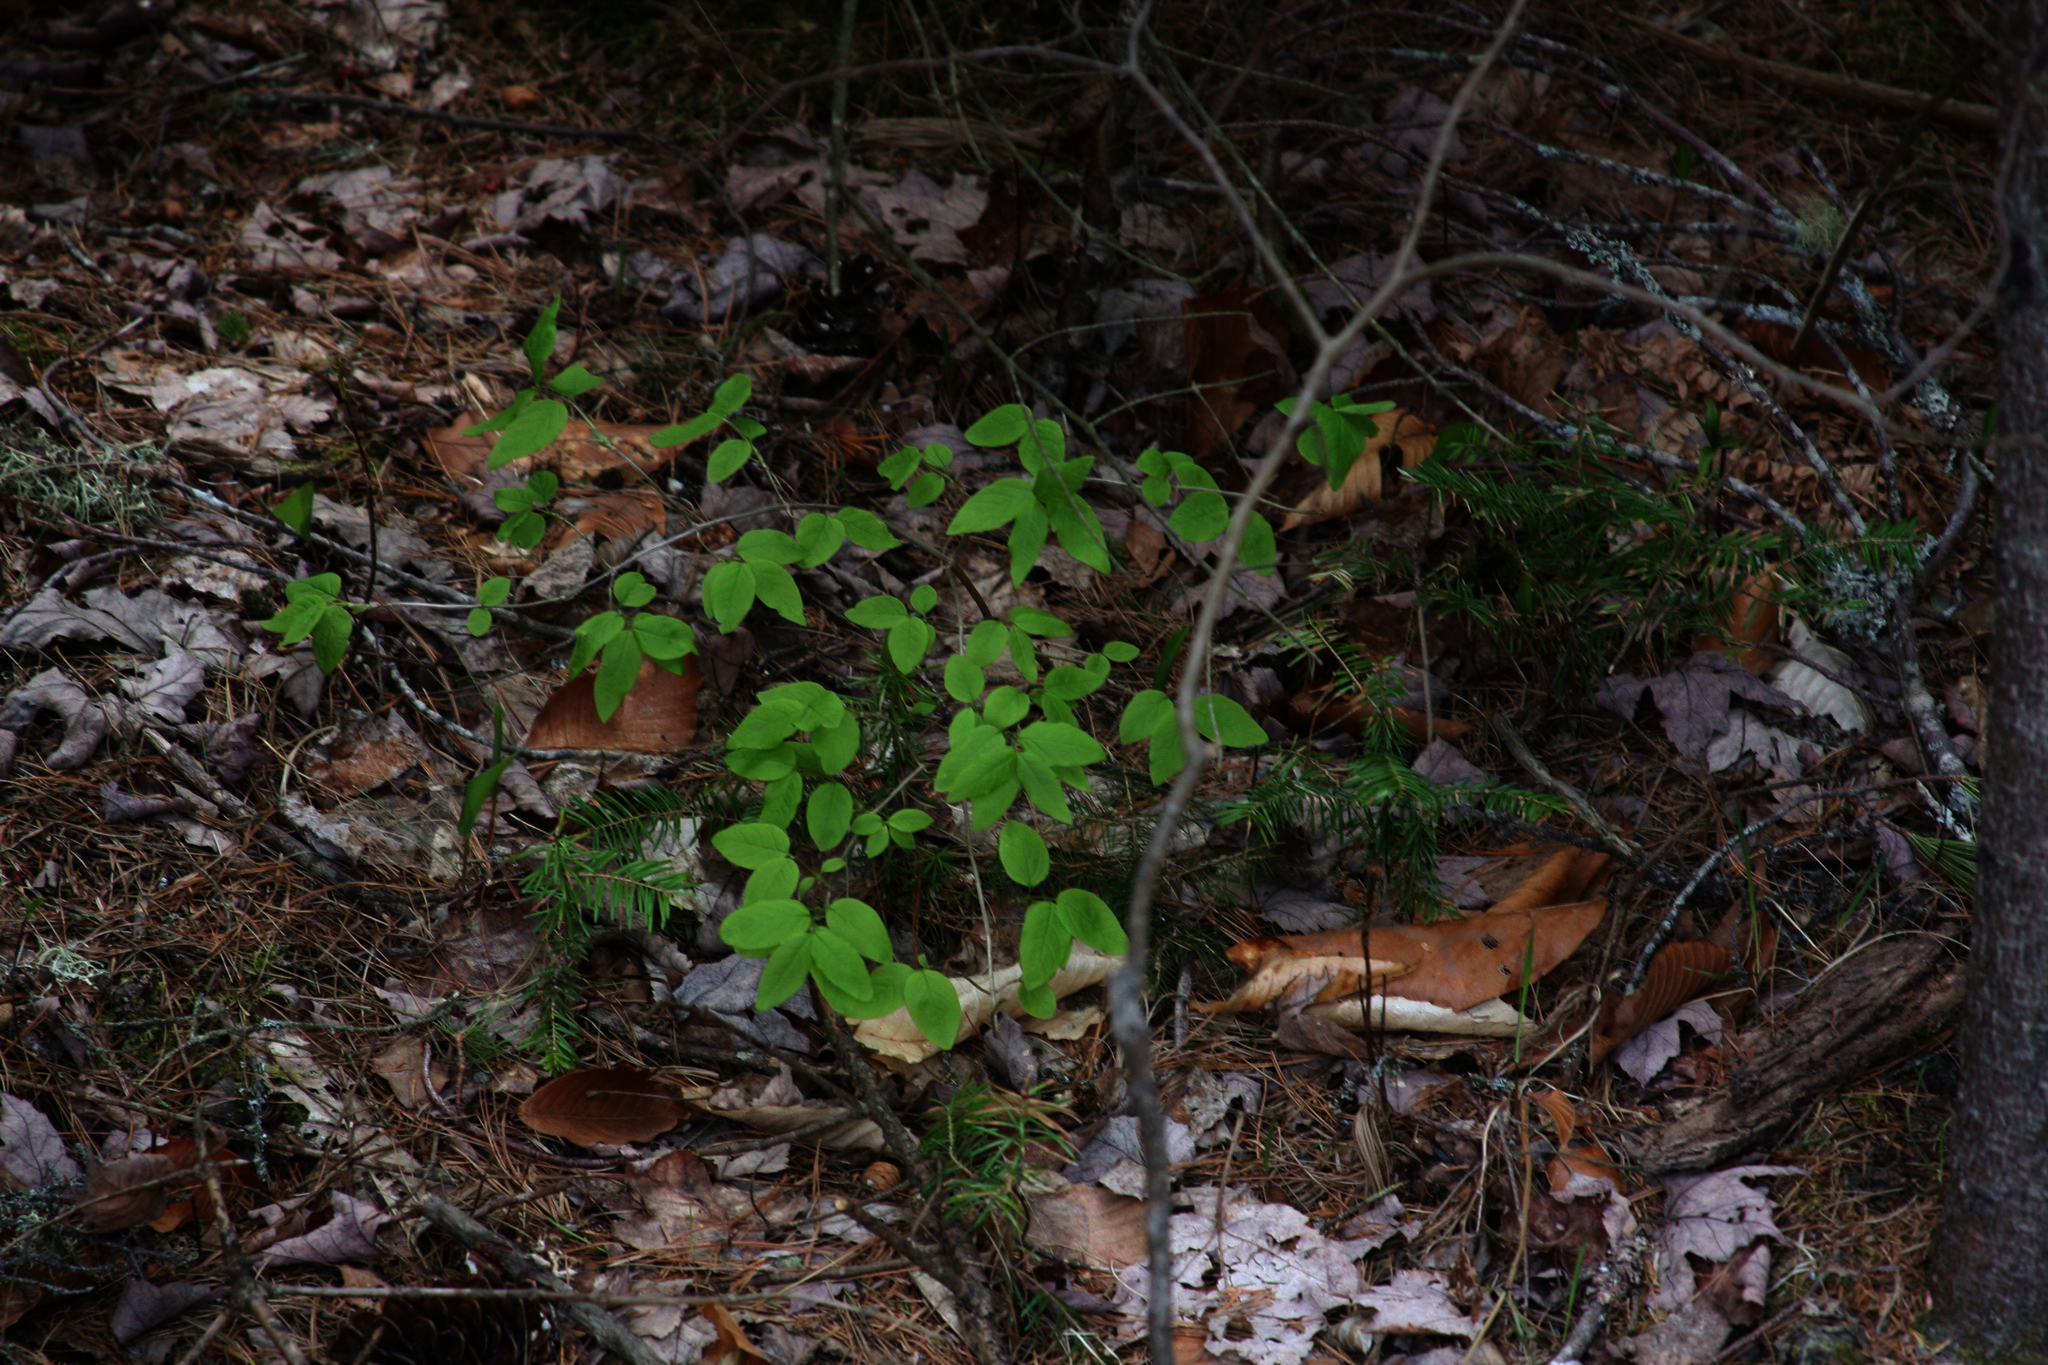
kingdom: Plantae
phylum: Tracheophyta
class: Magnoliopsida
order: Dipsacales
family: Caprifoliaceae
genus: Lonicera
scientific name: Lonicera canadensis
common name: American fly-honeysuckle
